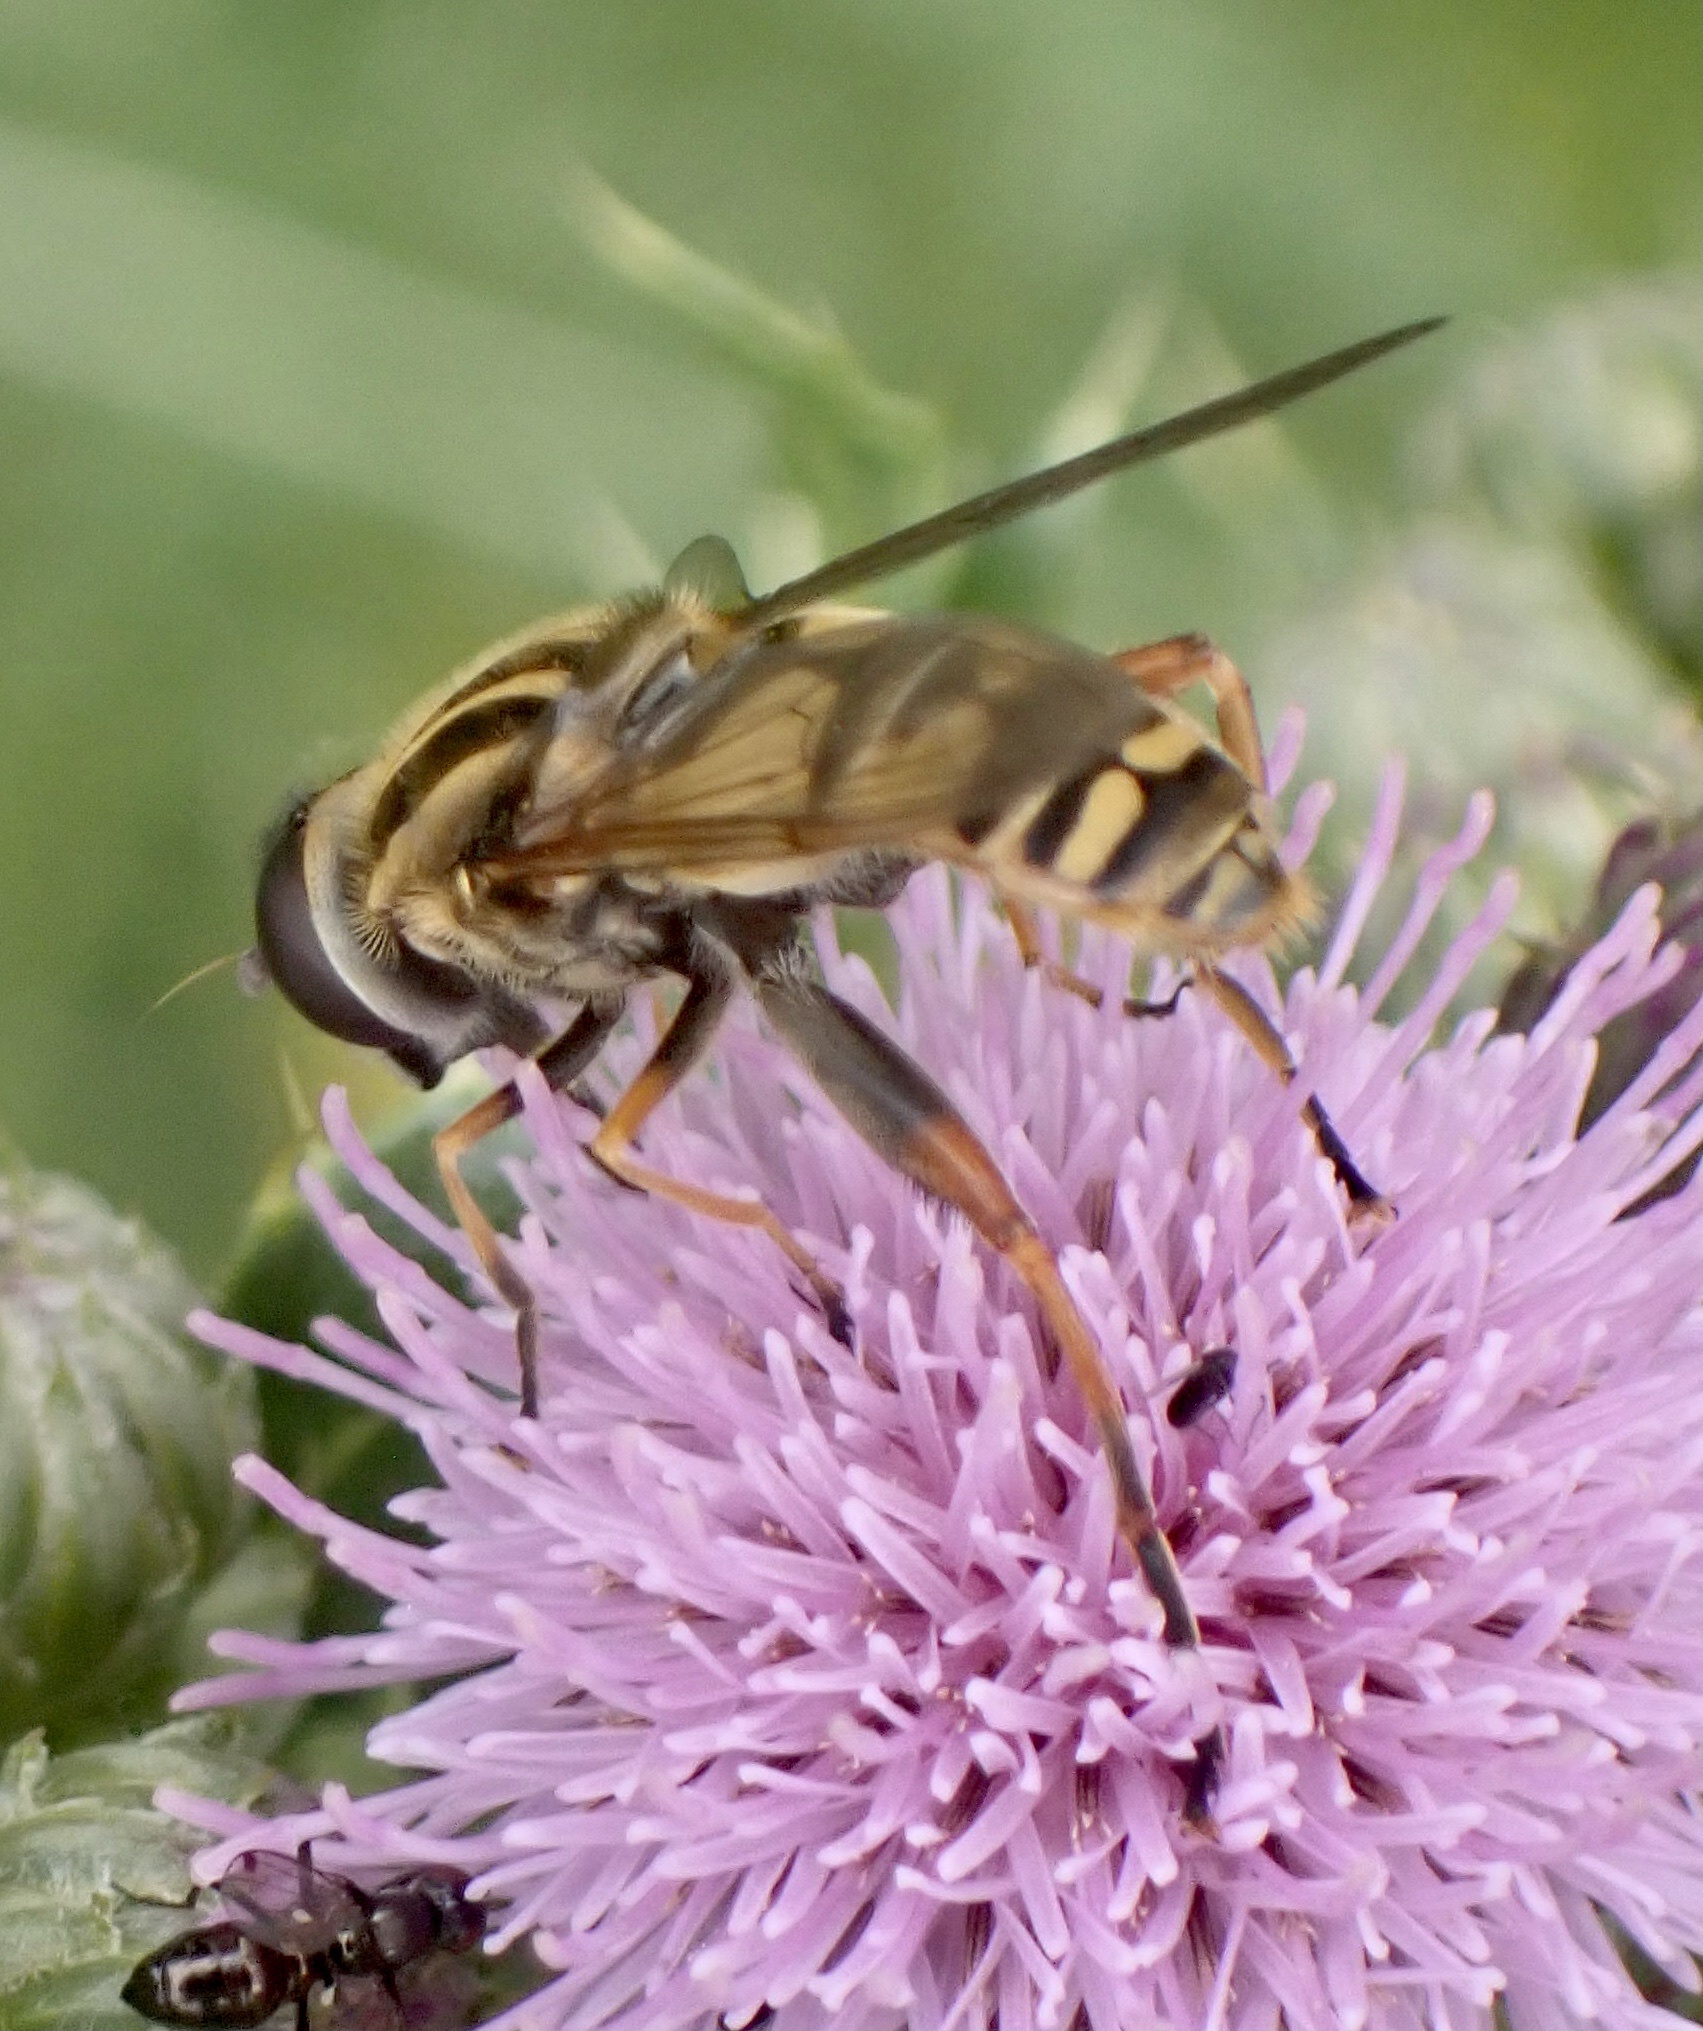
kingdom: Animalia
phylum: Arthropoda
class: Insecta
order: Diptera
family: Syrphidae
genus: Helophilus
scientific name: Helophilus pendulus
